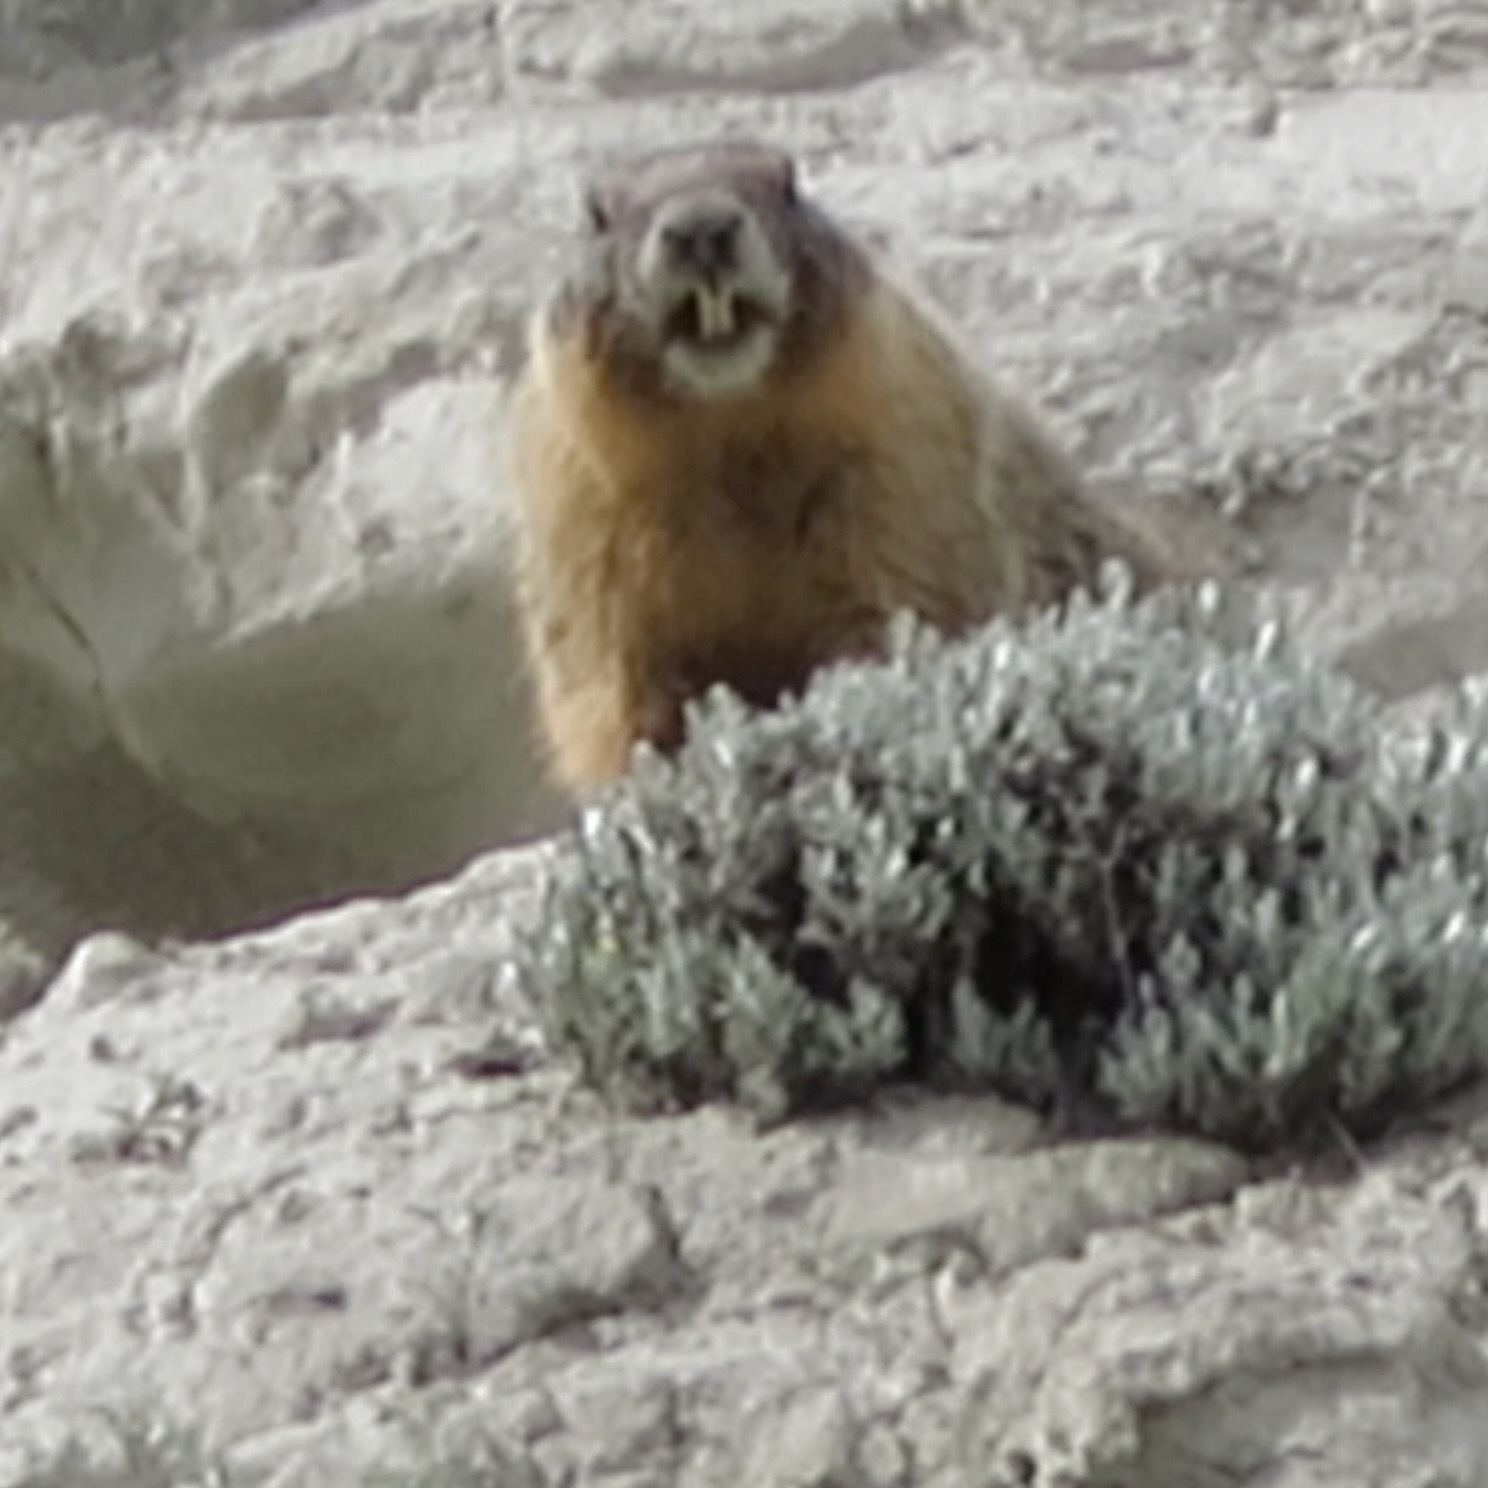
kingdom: Animalia
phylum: Chordata
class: Mammalia
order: Rodentia
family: Sciuridae
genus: Marmota
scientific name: Marmota flaviventris
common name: Yellow-bellied marmot
